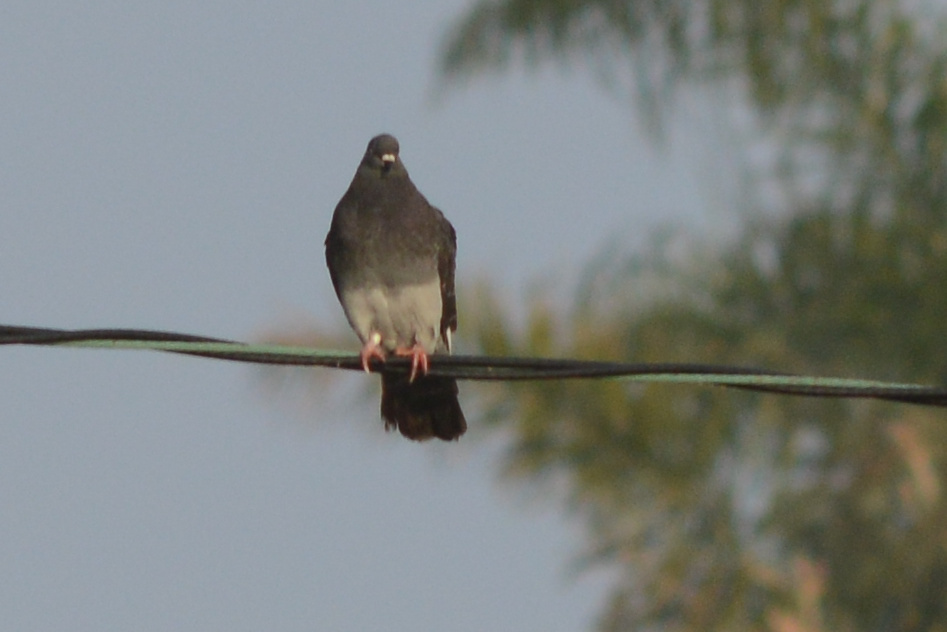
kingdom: Animalia
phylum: Chordata
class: Aves
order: Columbiformes
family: Columbidae
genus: Columba
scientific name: Columba livia
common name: Rock pigeon
